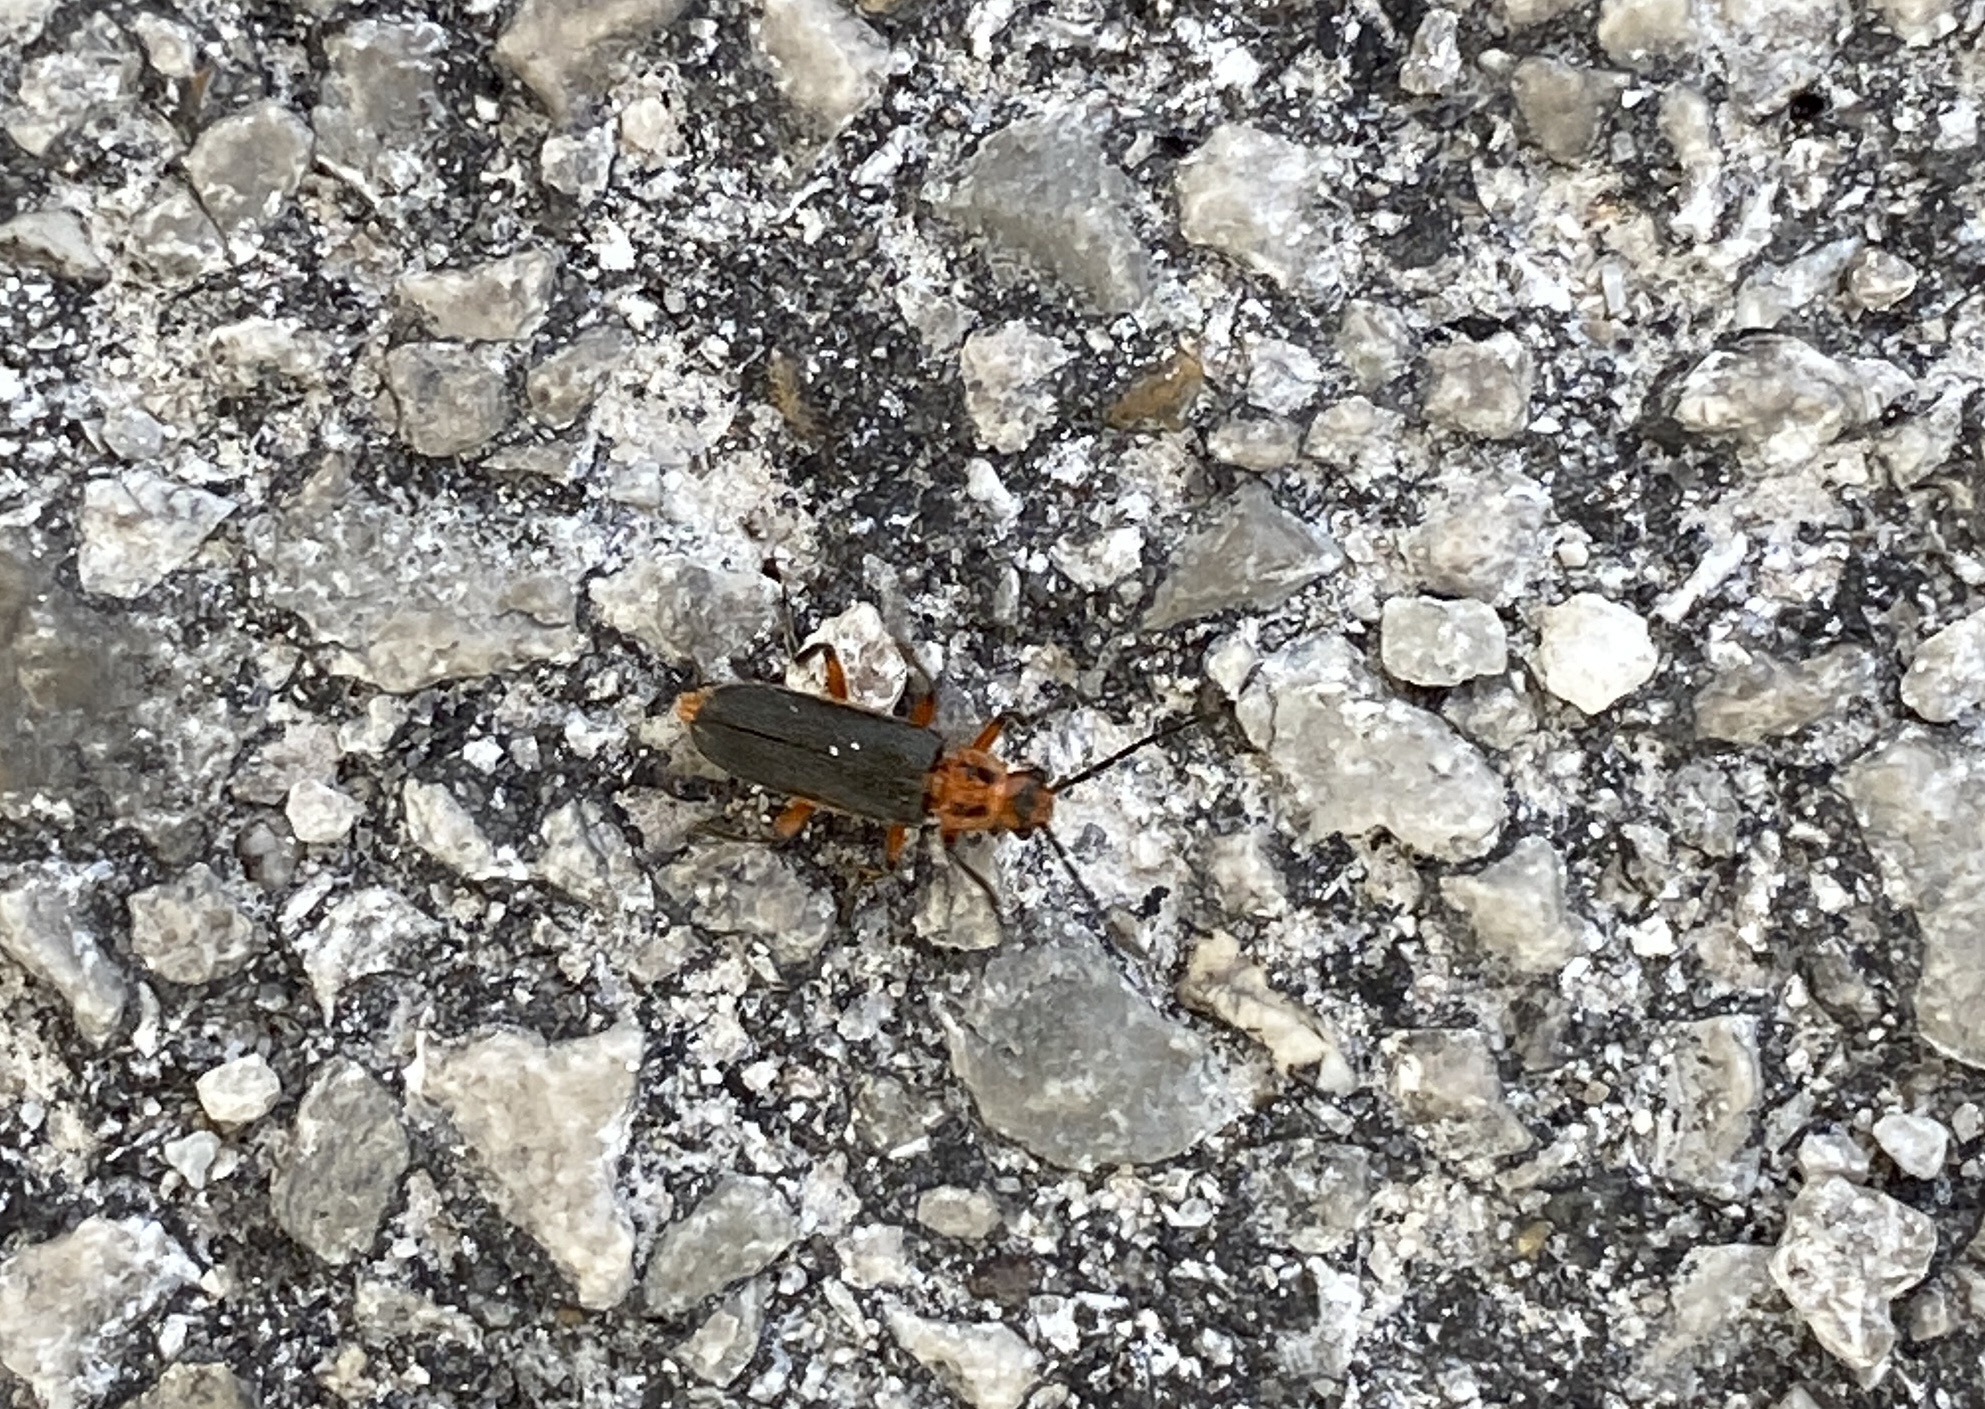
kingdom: Animalia
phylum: Arthropoda
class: Insecta
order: Coleoptera
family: Cantharidae
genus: Atalantycha
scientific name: Atalantycha bilineata
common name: Two-lined leatherwing
